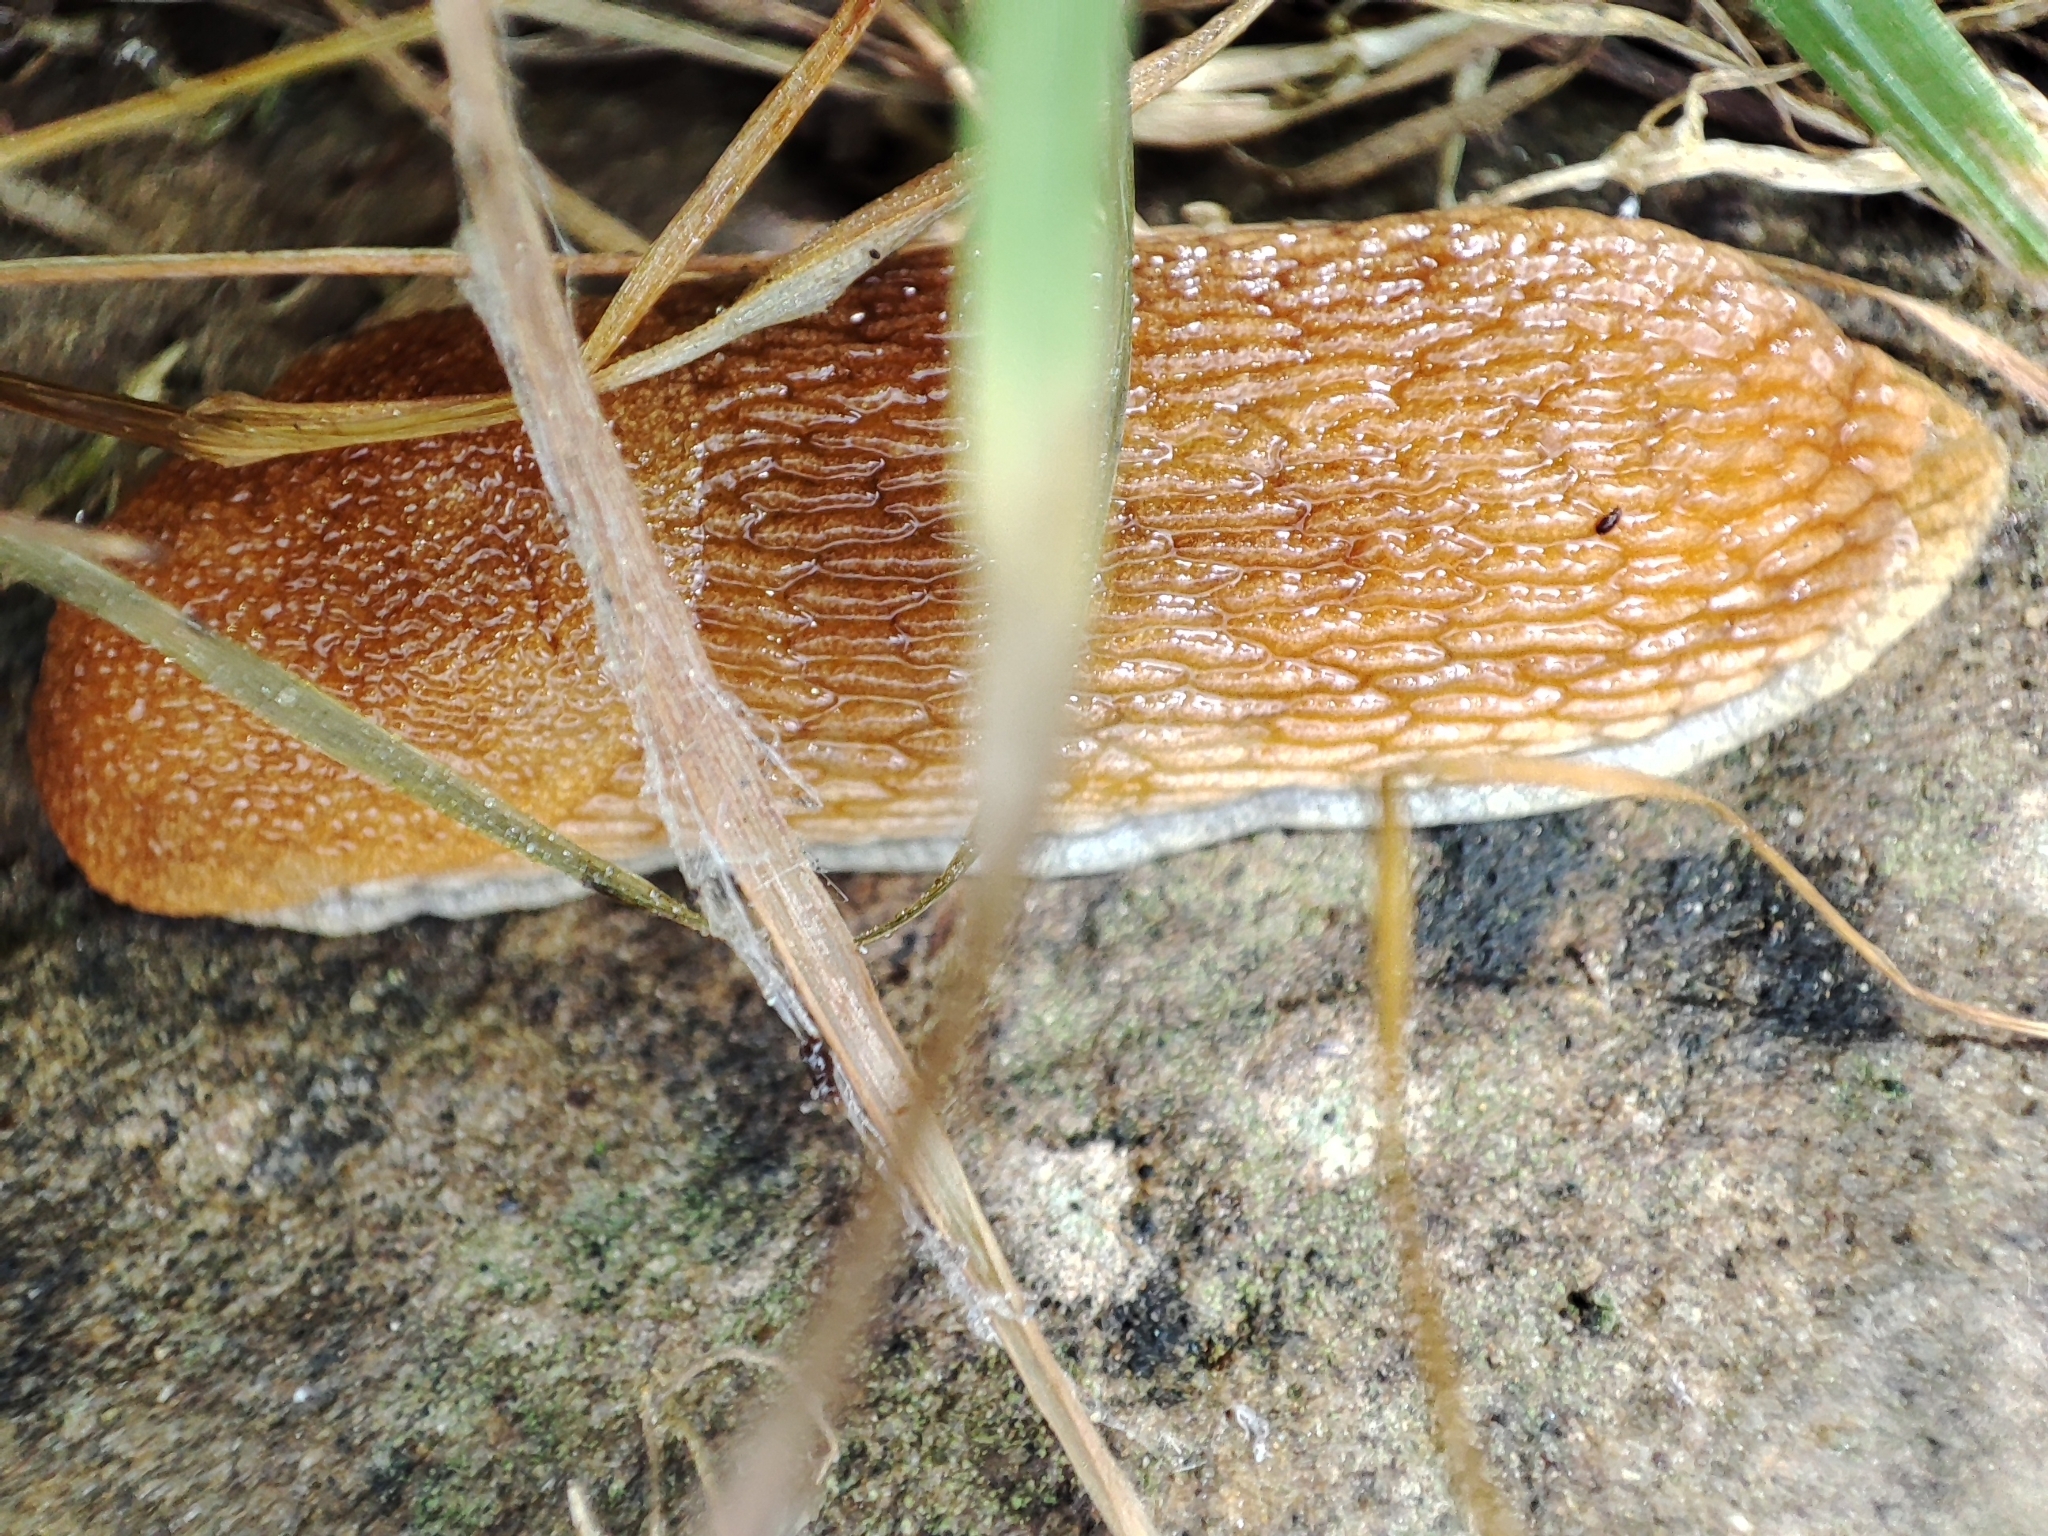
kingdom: Animalia
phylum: Mollusca
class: Gastropoda
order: Stylommatophora
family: Arionidae
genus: Arion
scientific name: Arion fuscus
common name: Northern dusky slug
